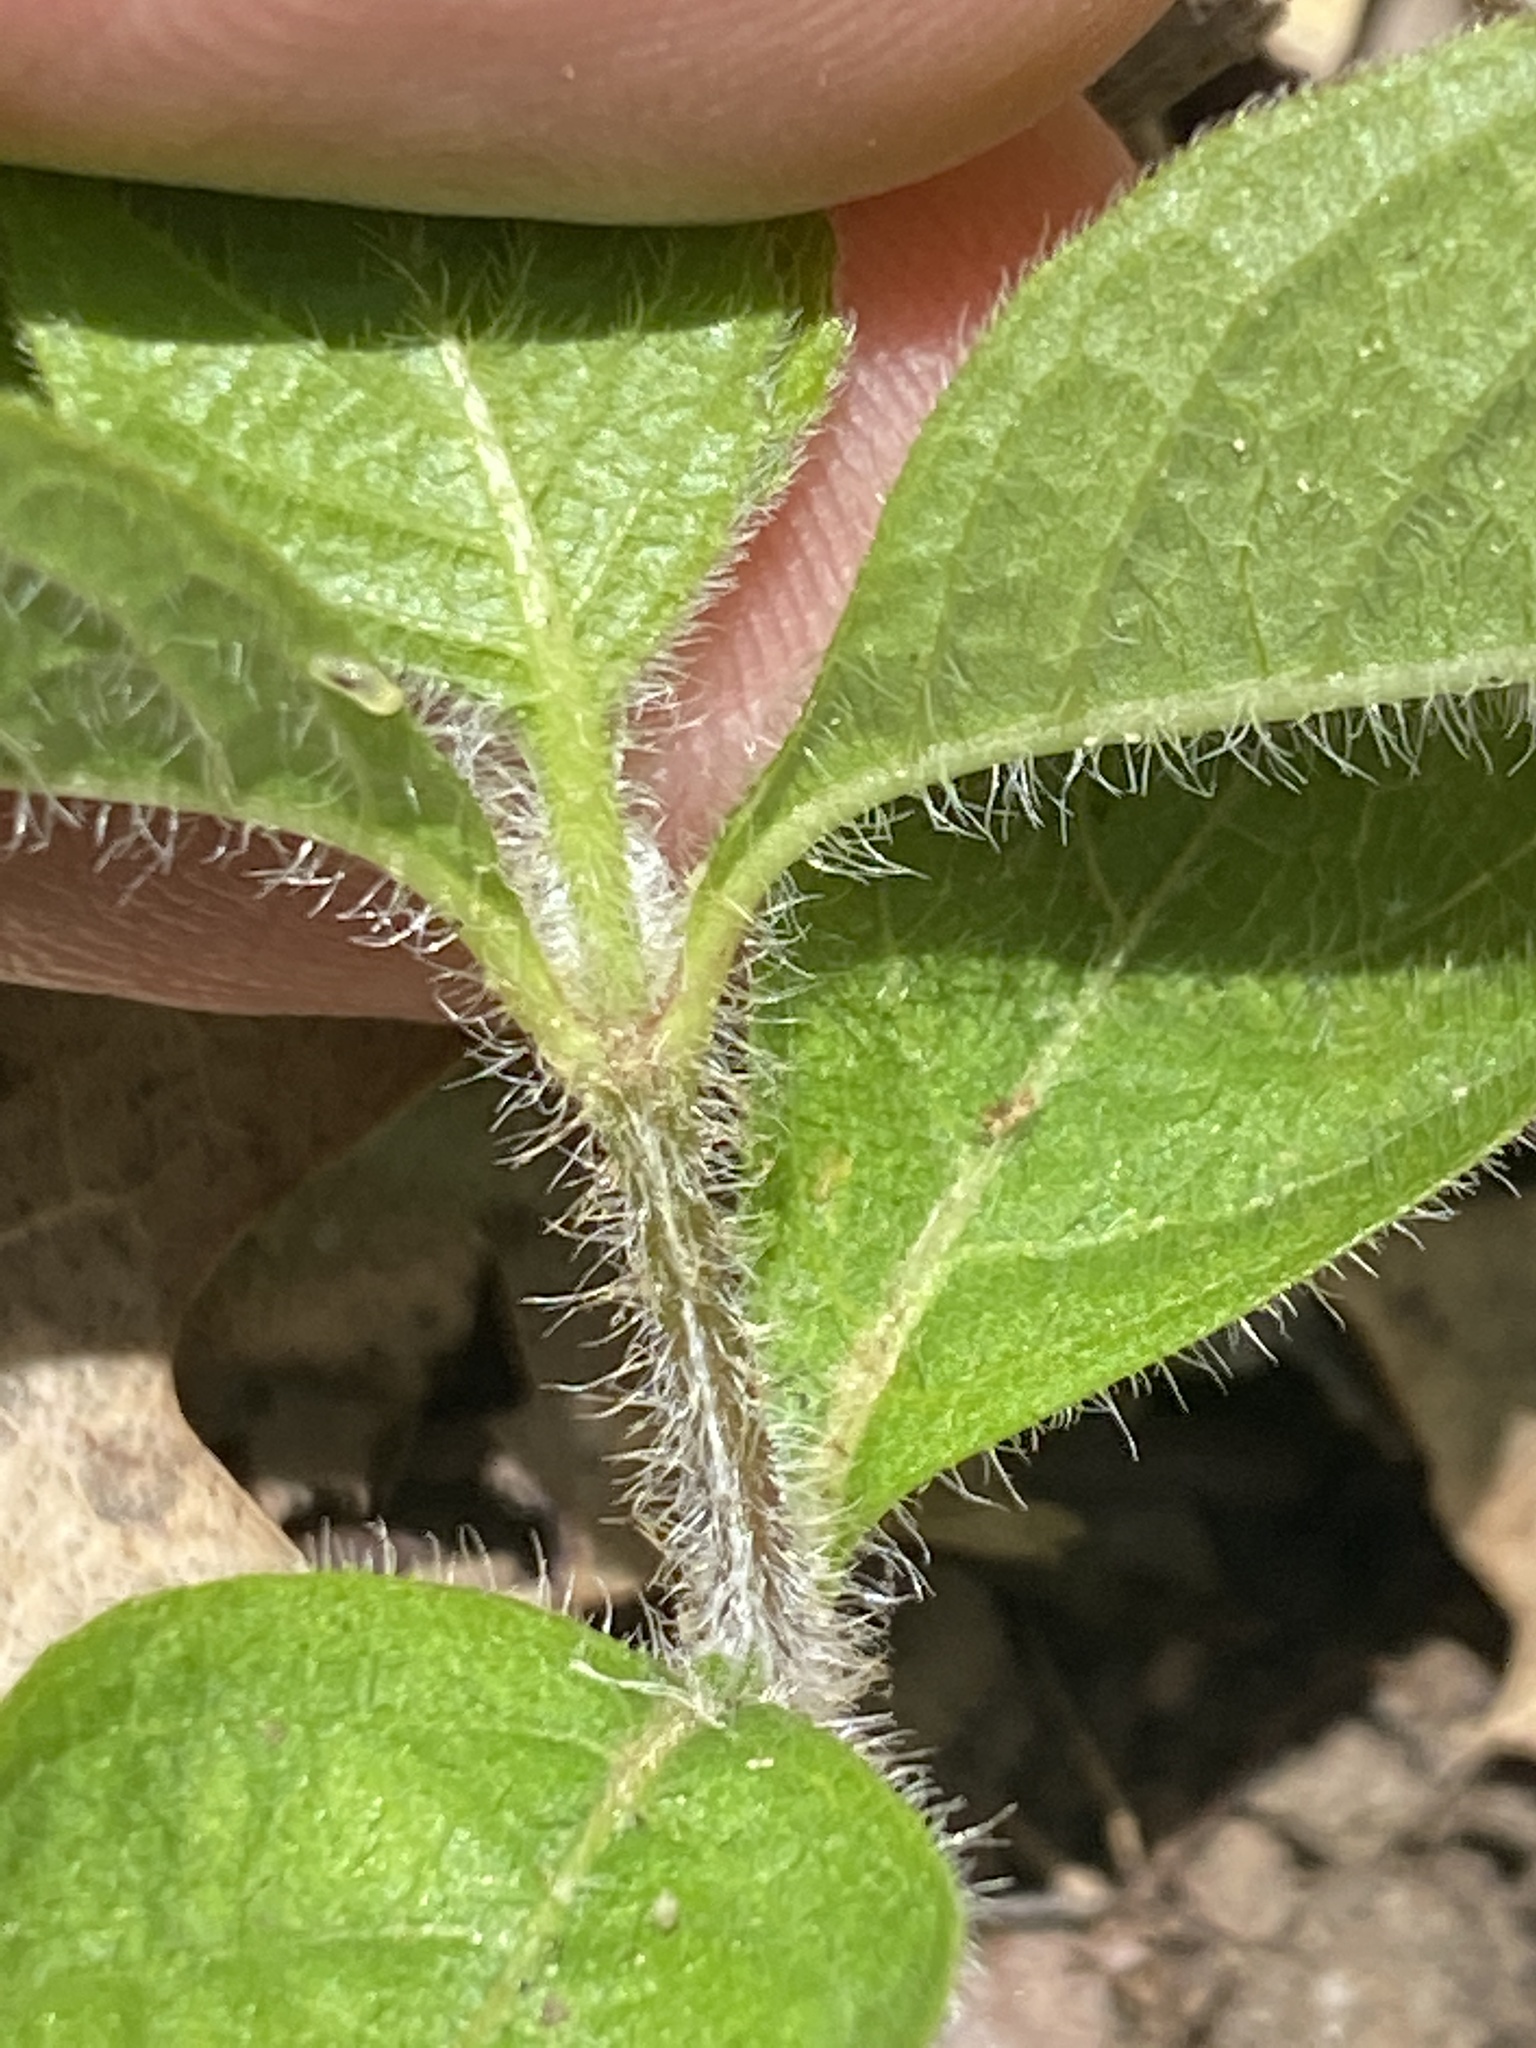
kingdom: Plantae
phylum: Tracheophyta
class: Magnoliopsida
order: Lamiales
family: Acanthaceae
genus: Ruellia
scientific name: Ruellia humilis
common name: Fringe-leaf ruellia
